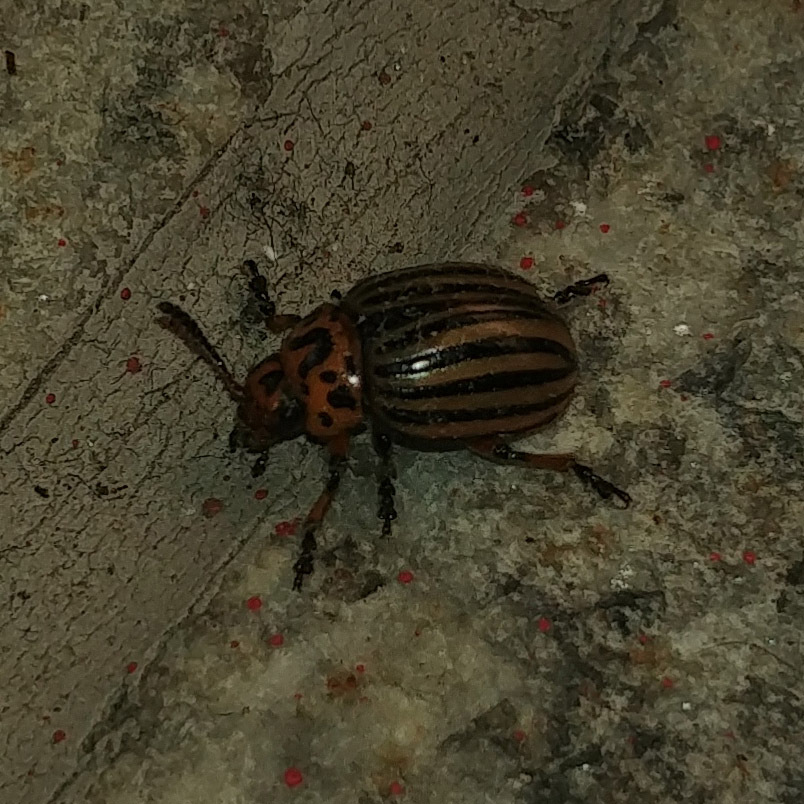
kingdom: Animalia
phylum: Arthropoda
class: Insecta
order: Coleoptera
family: Chrysomelidae
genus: Leptinotarsa
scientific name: Leptinotarsa decemlineata
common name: Colorado potato beetle
